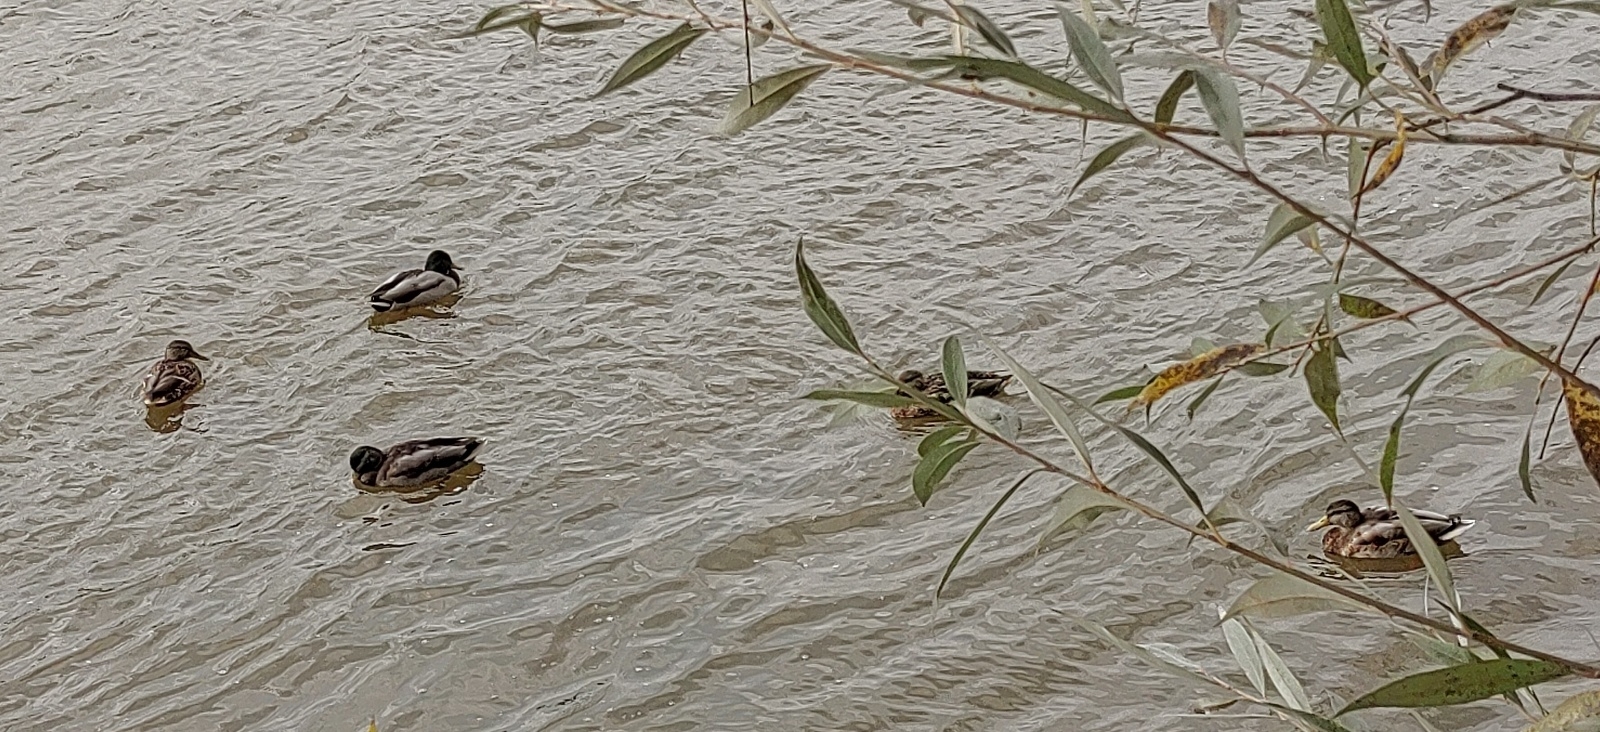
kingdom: Animalia
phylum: Chordata
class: Aves
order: Anseriformes
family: Anatidae
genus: Anas
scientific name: Anas platyrhynchos
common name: Mallard
